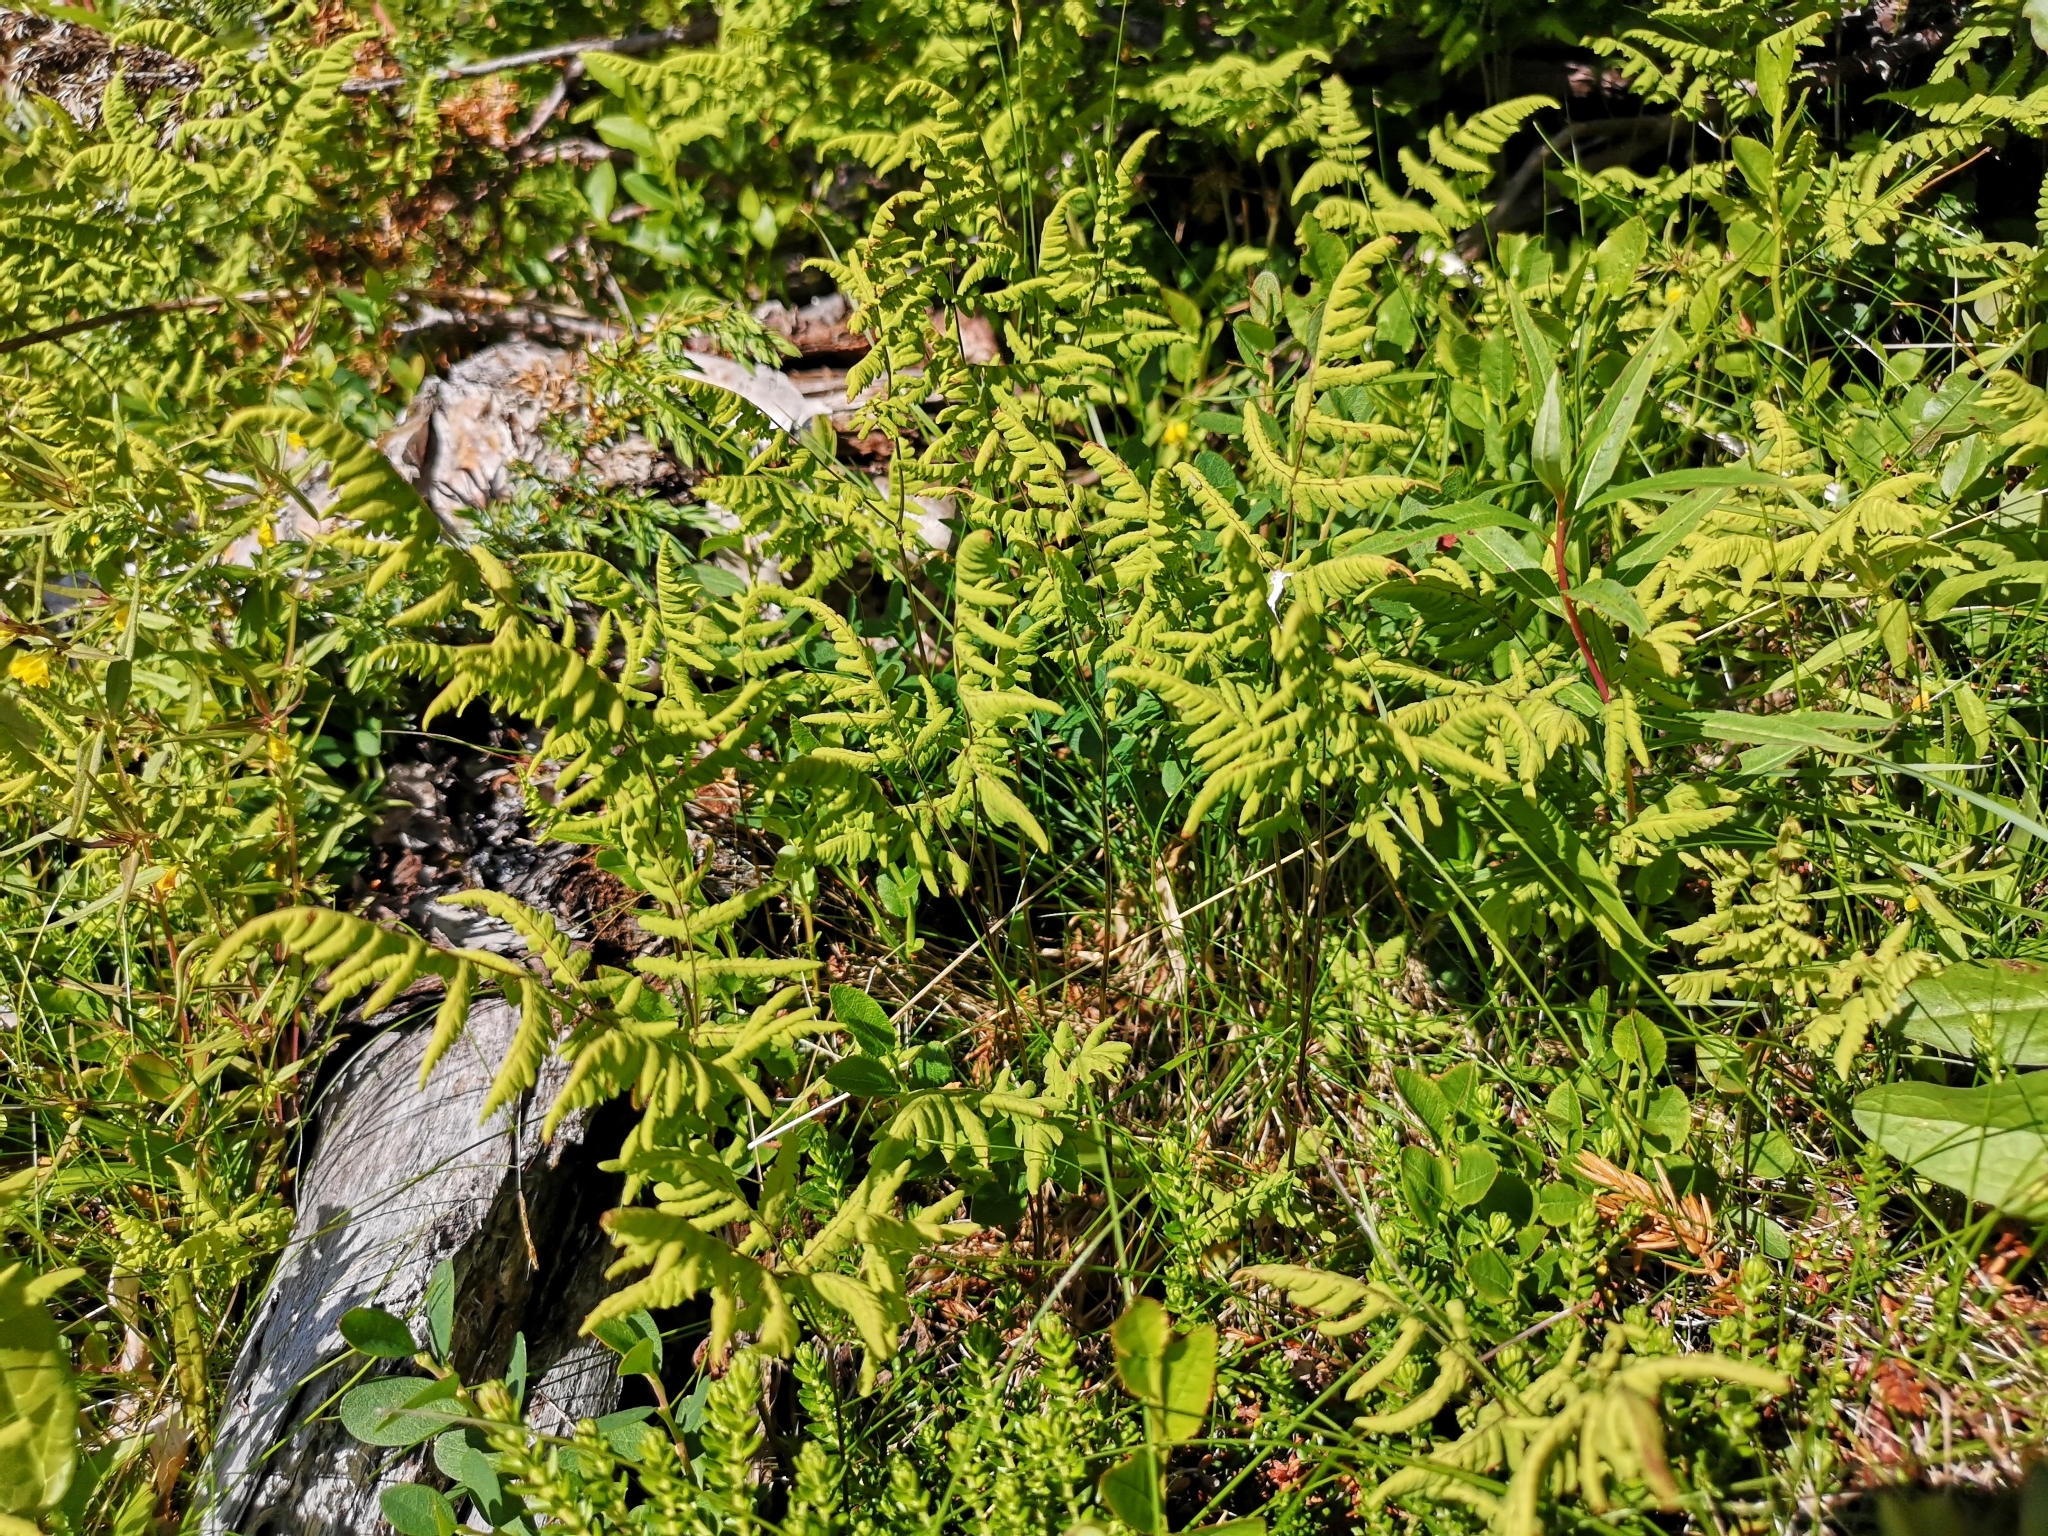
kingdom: Plantae
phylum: Tracheophyta
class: Polypodiopsida
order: Polypodiales
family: Cystopteridaceae
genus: Gymnocarpium
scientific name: Gymnocarpium dryopteris
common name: Oak fern
